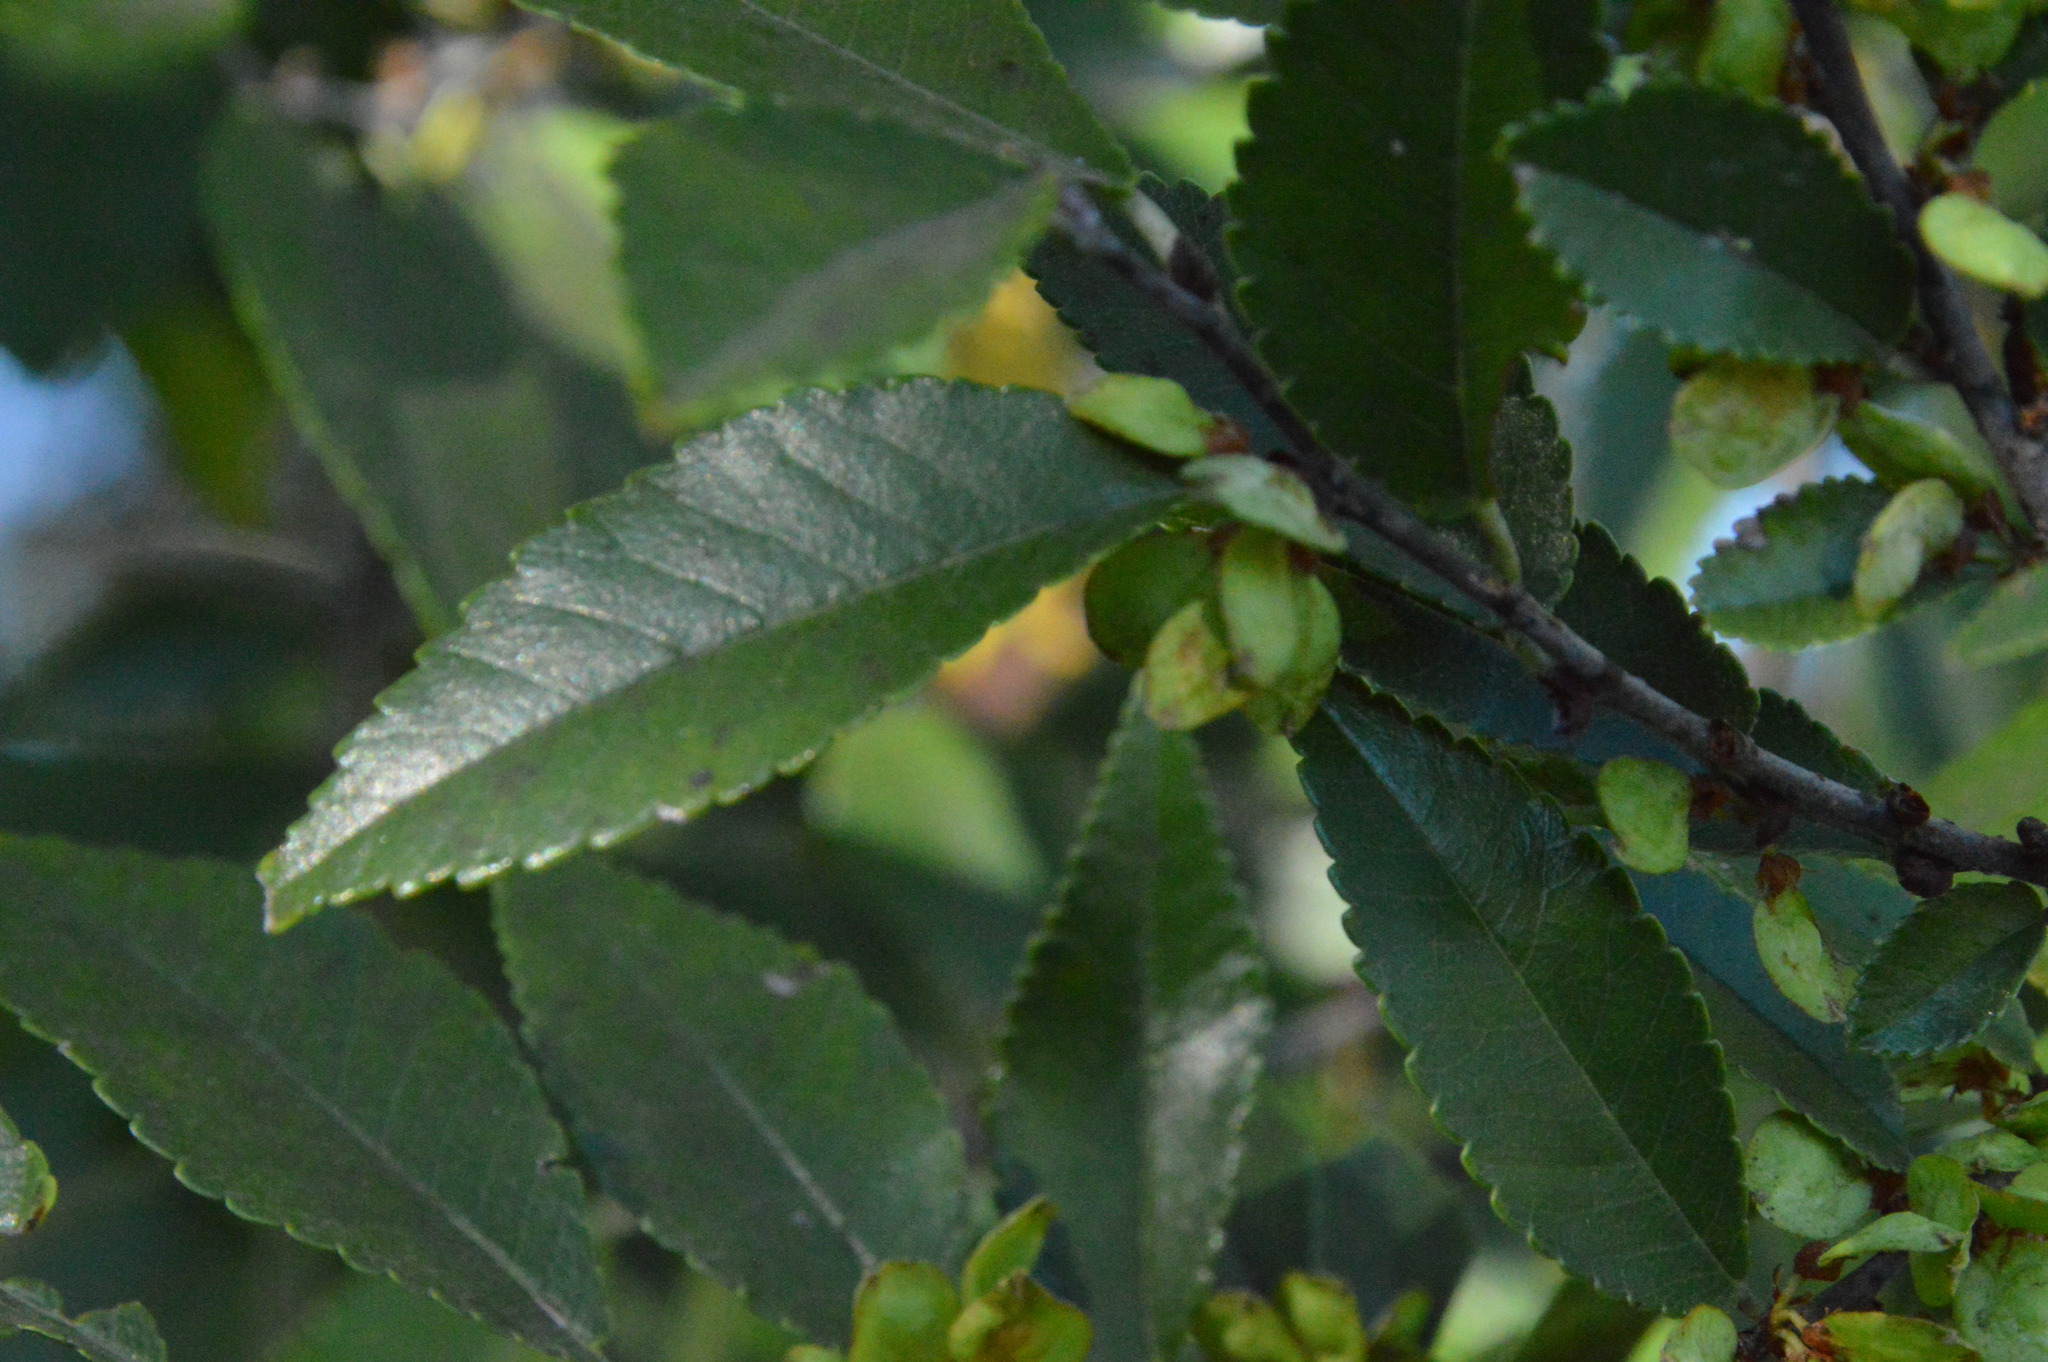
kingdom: Plantae
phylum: Tracheophyta
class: Magnoliopsida
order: Rosales
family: Ulmaceae
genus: Ulmus
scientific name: Ulmus parvifolia
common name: Chinese elm
